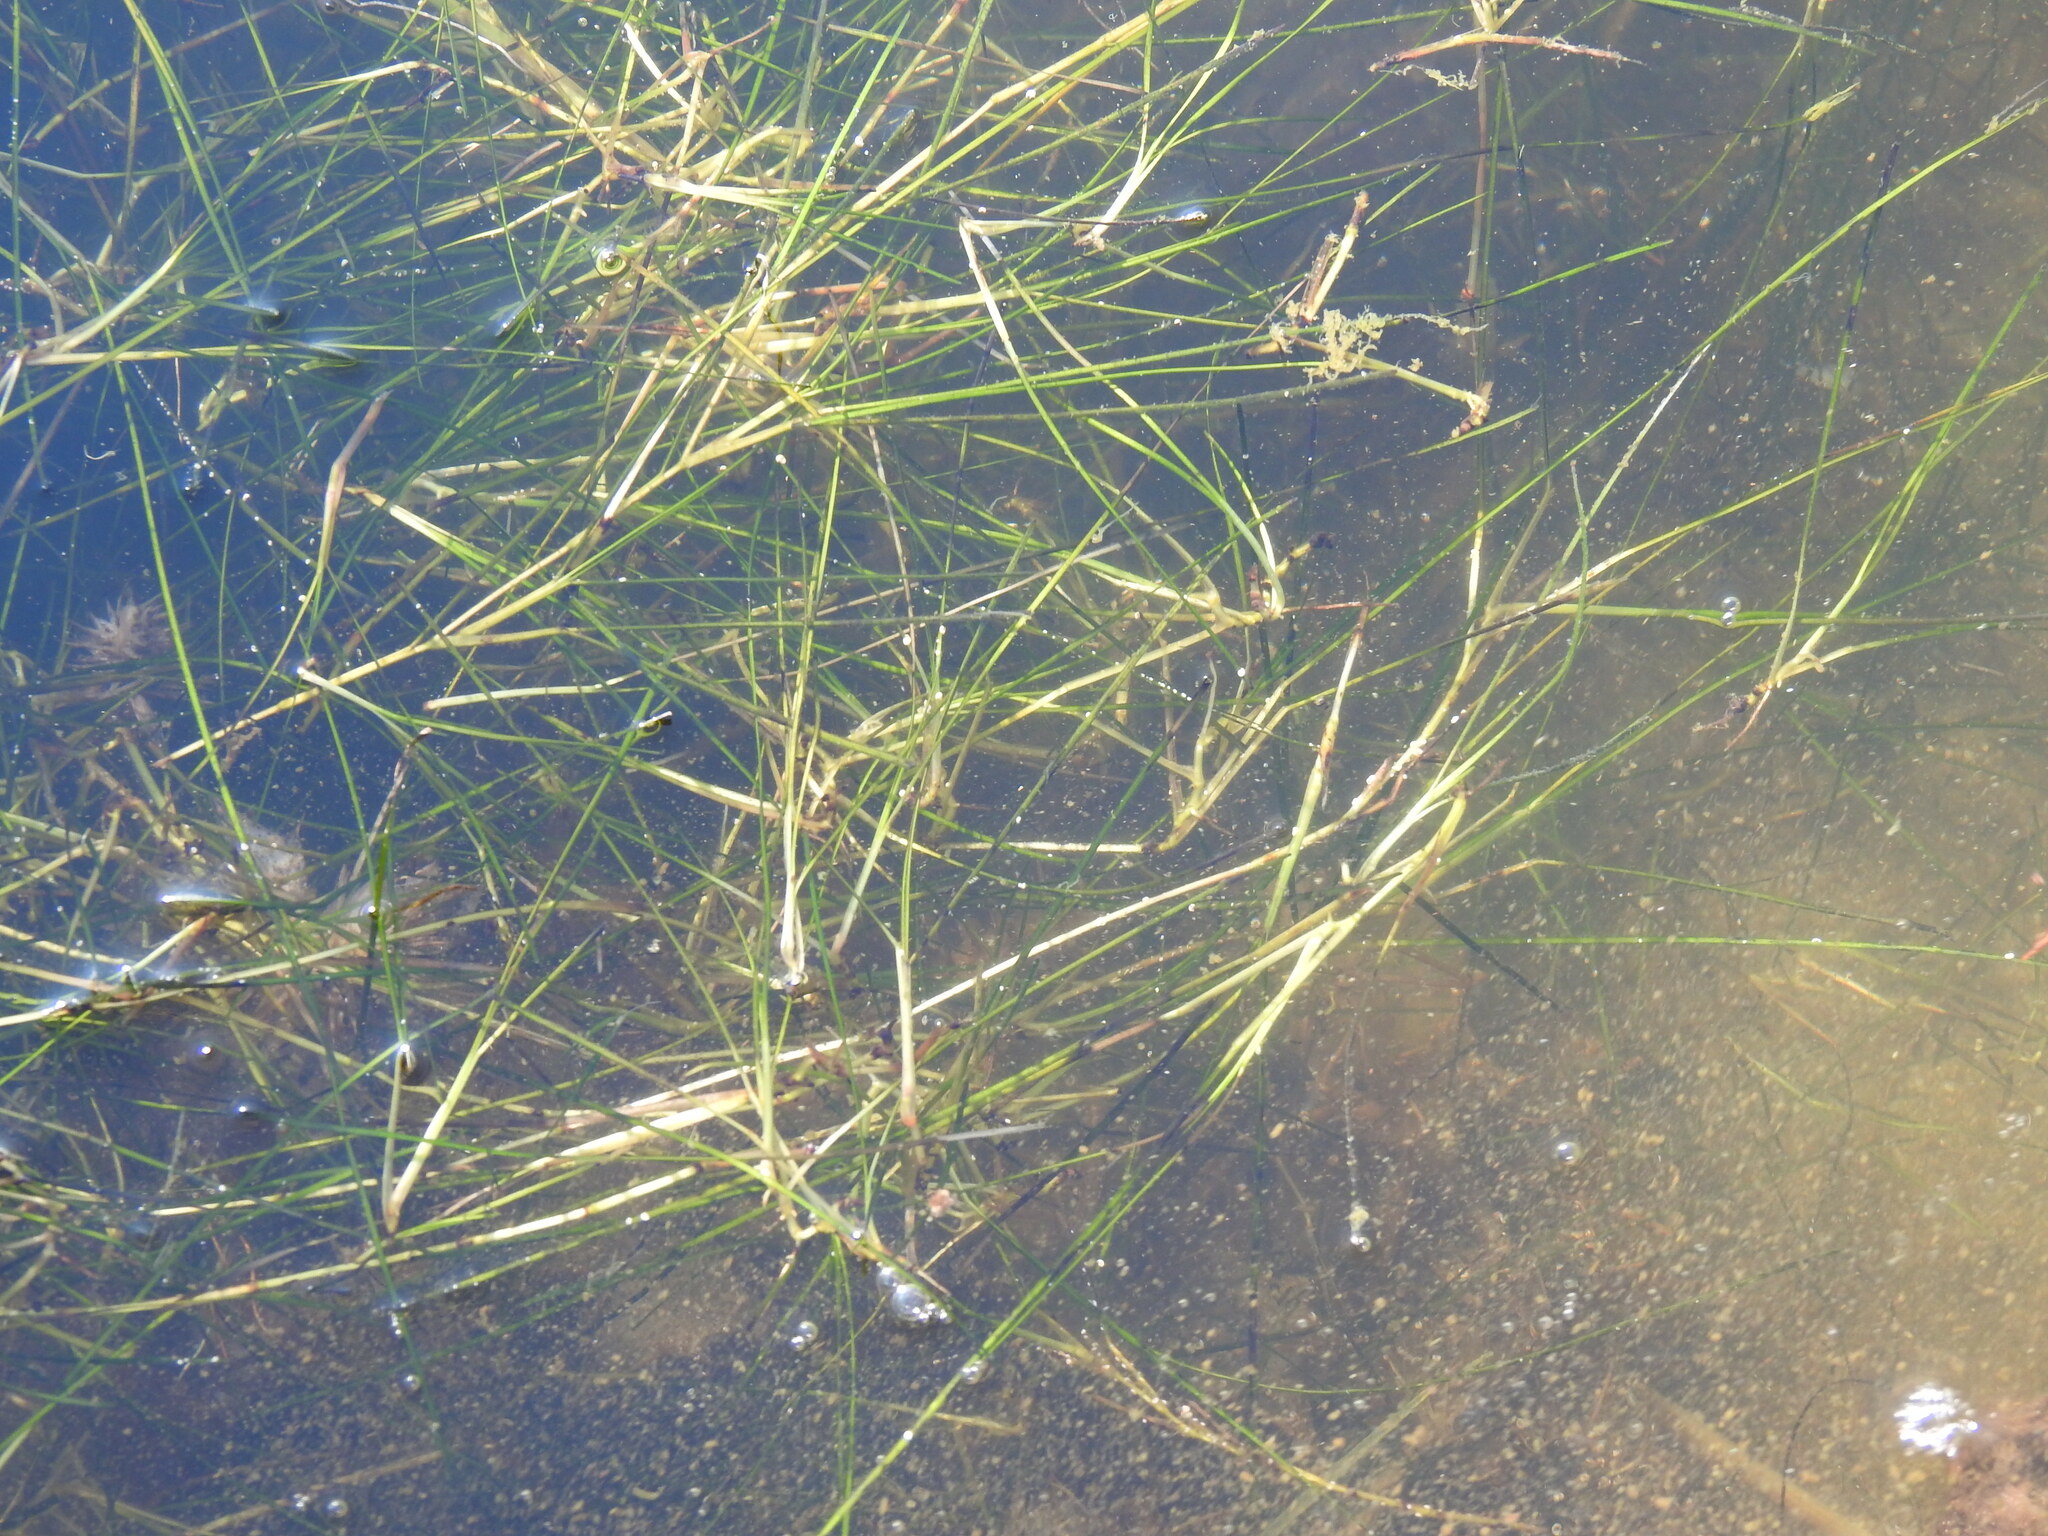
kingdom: Plantae
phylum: Tracheophyta
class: Liliopsida
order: Alismatales
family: Ruppiaceae
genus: Ruppia
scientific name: Ruppia cirrhosa
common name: Spiral tasselweed
